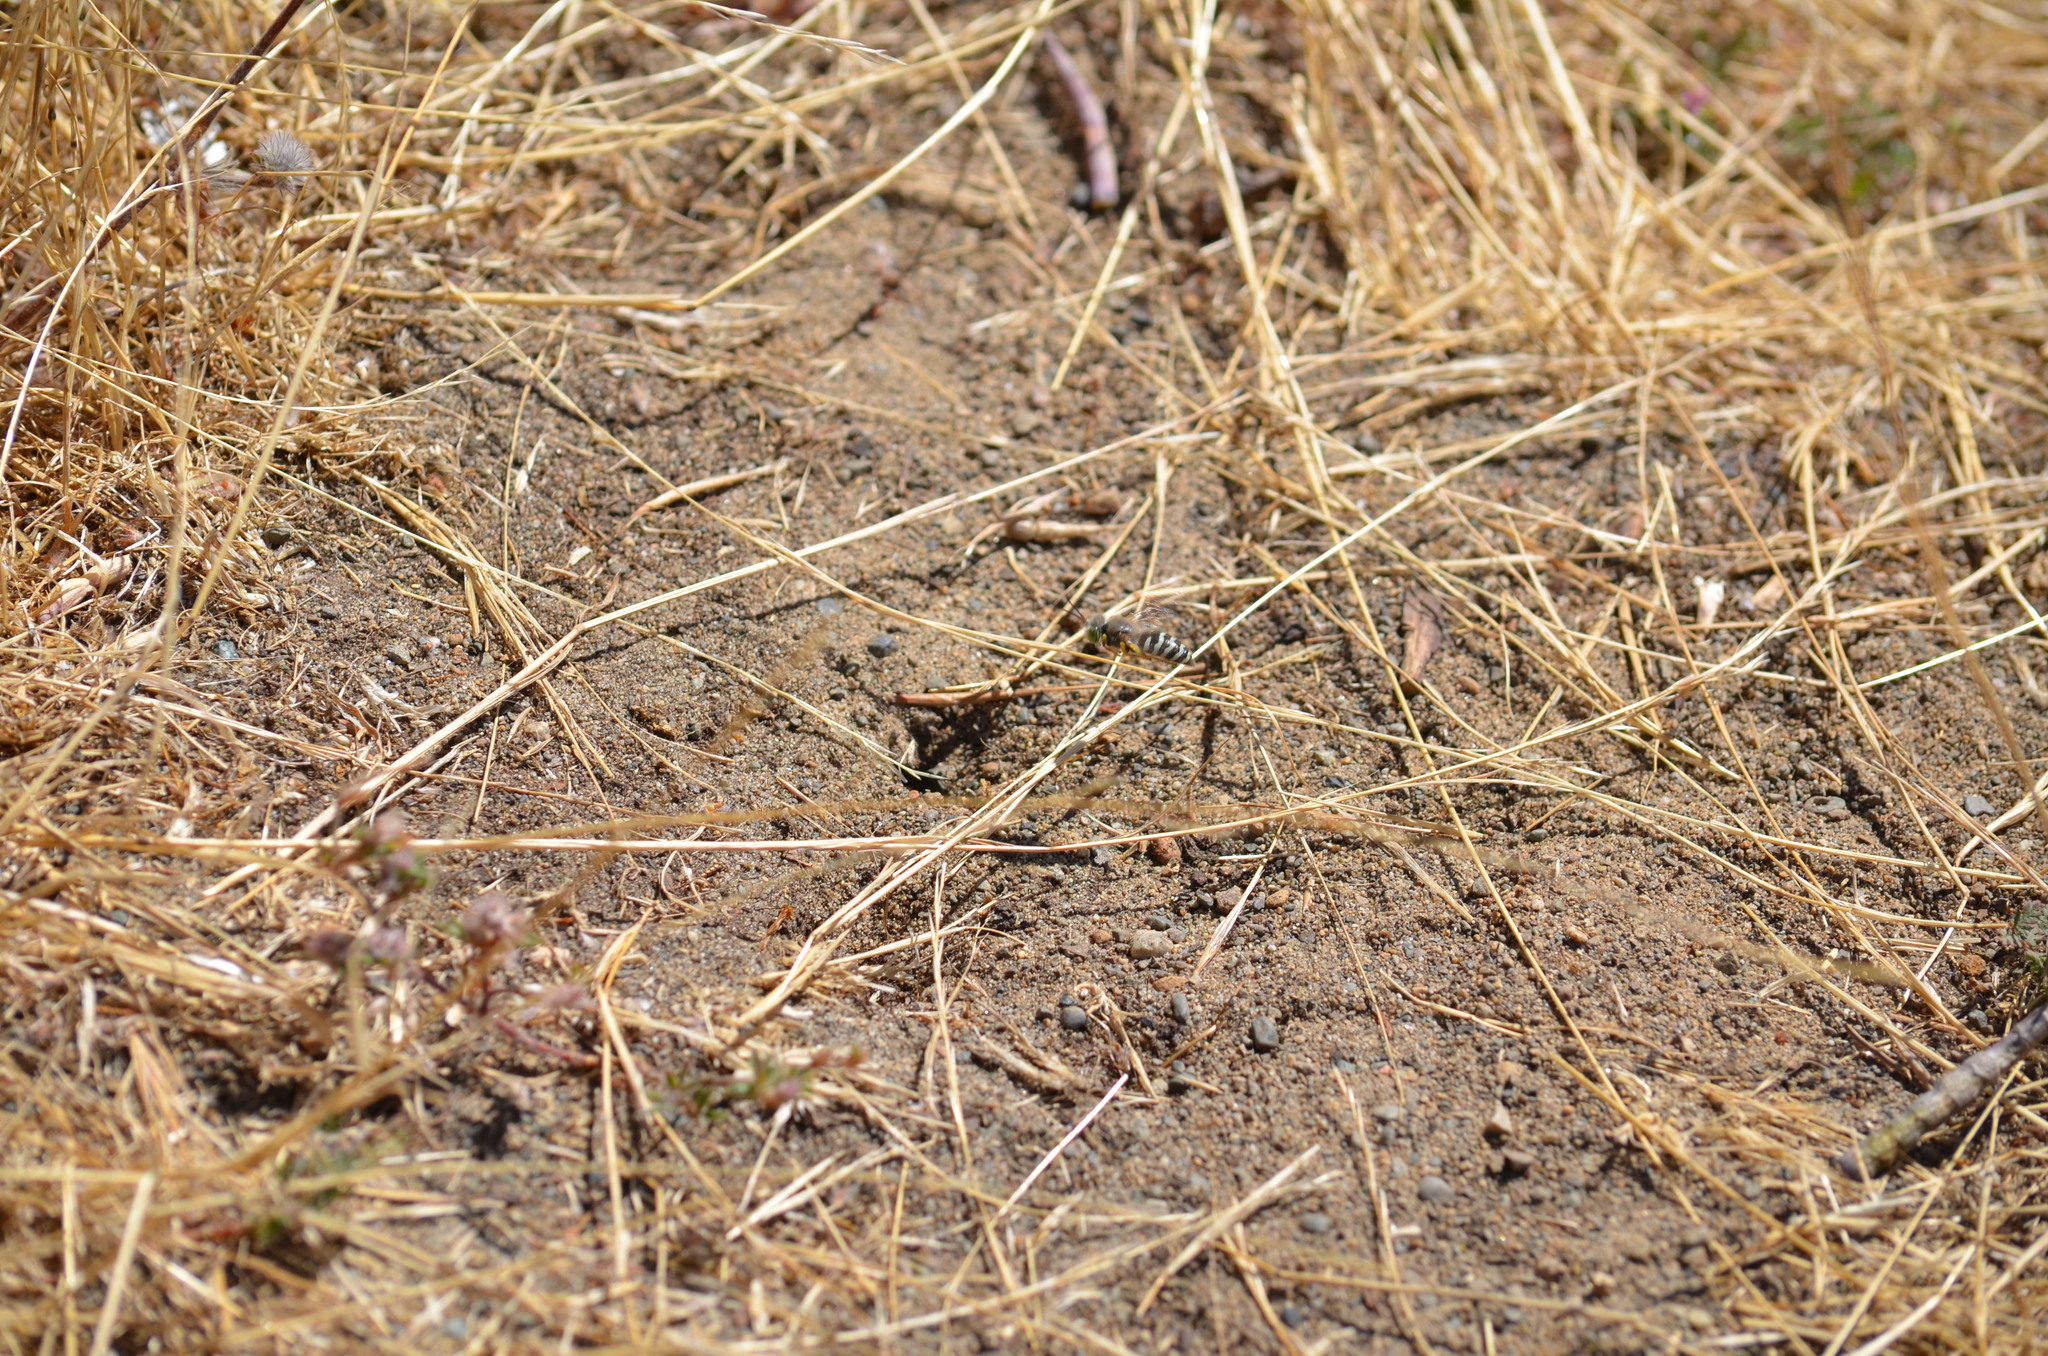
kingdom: Animalia
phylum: Arthropoda
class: Insecta
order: Hymenoptera
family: Crabronidae
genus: Bembix
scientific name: Bembix americana
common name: American sand wasp
